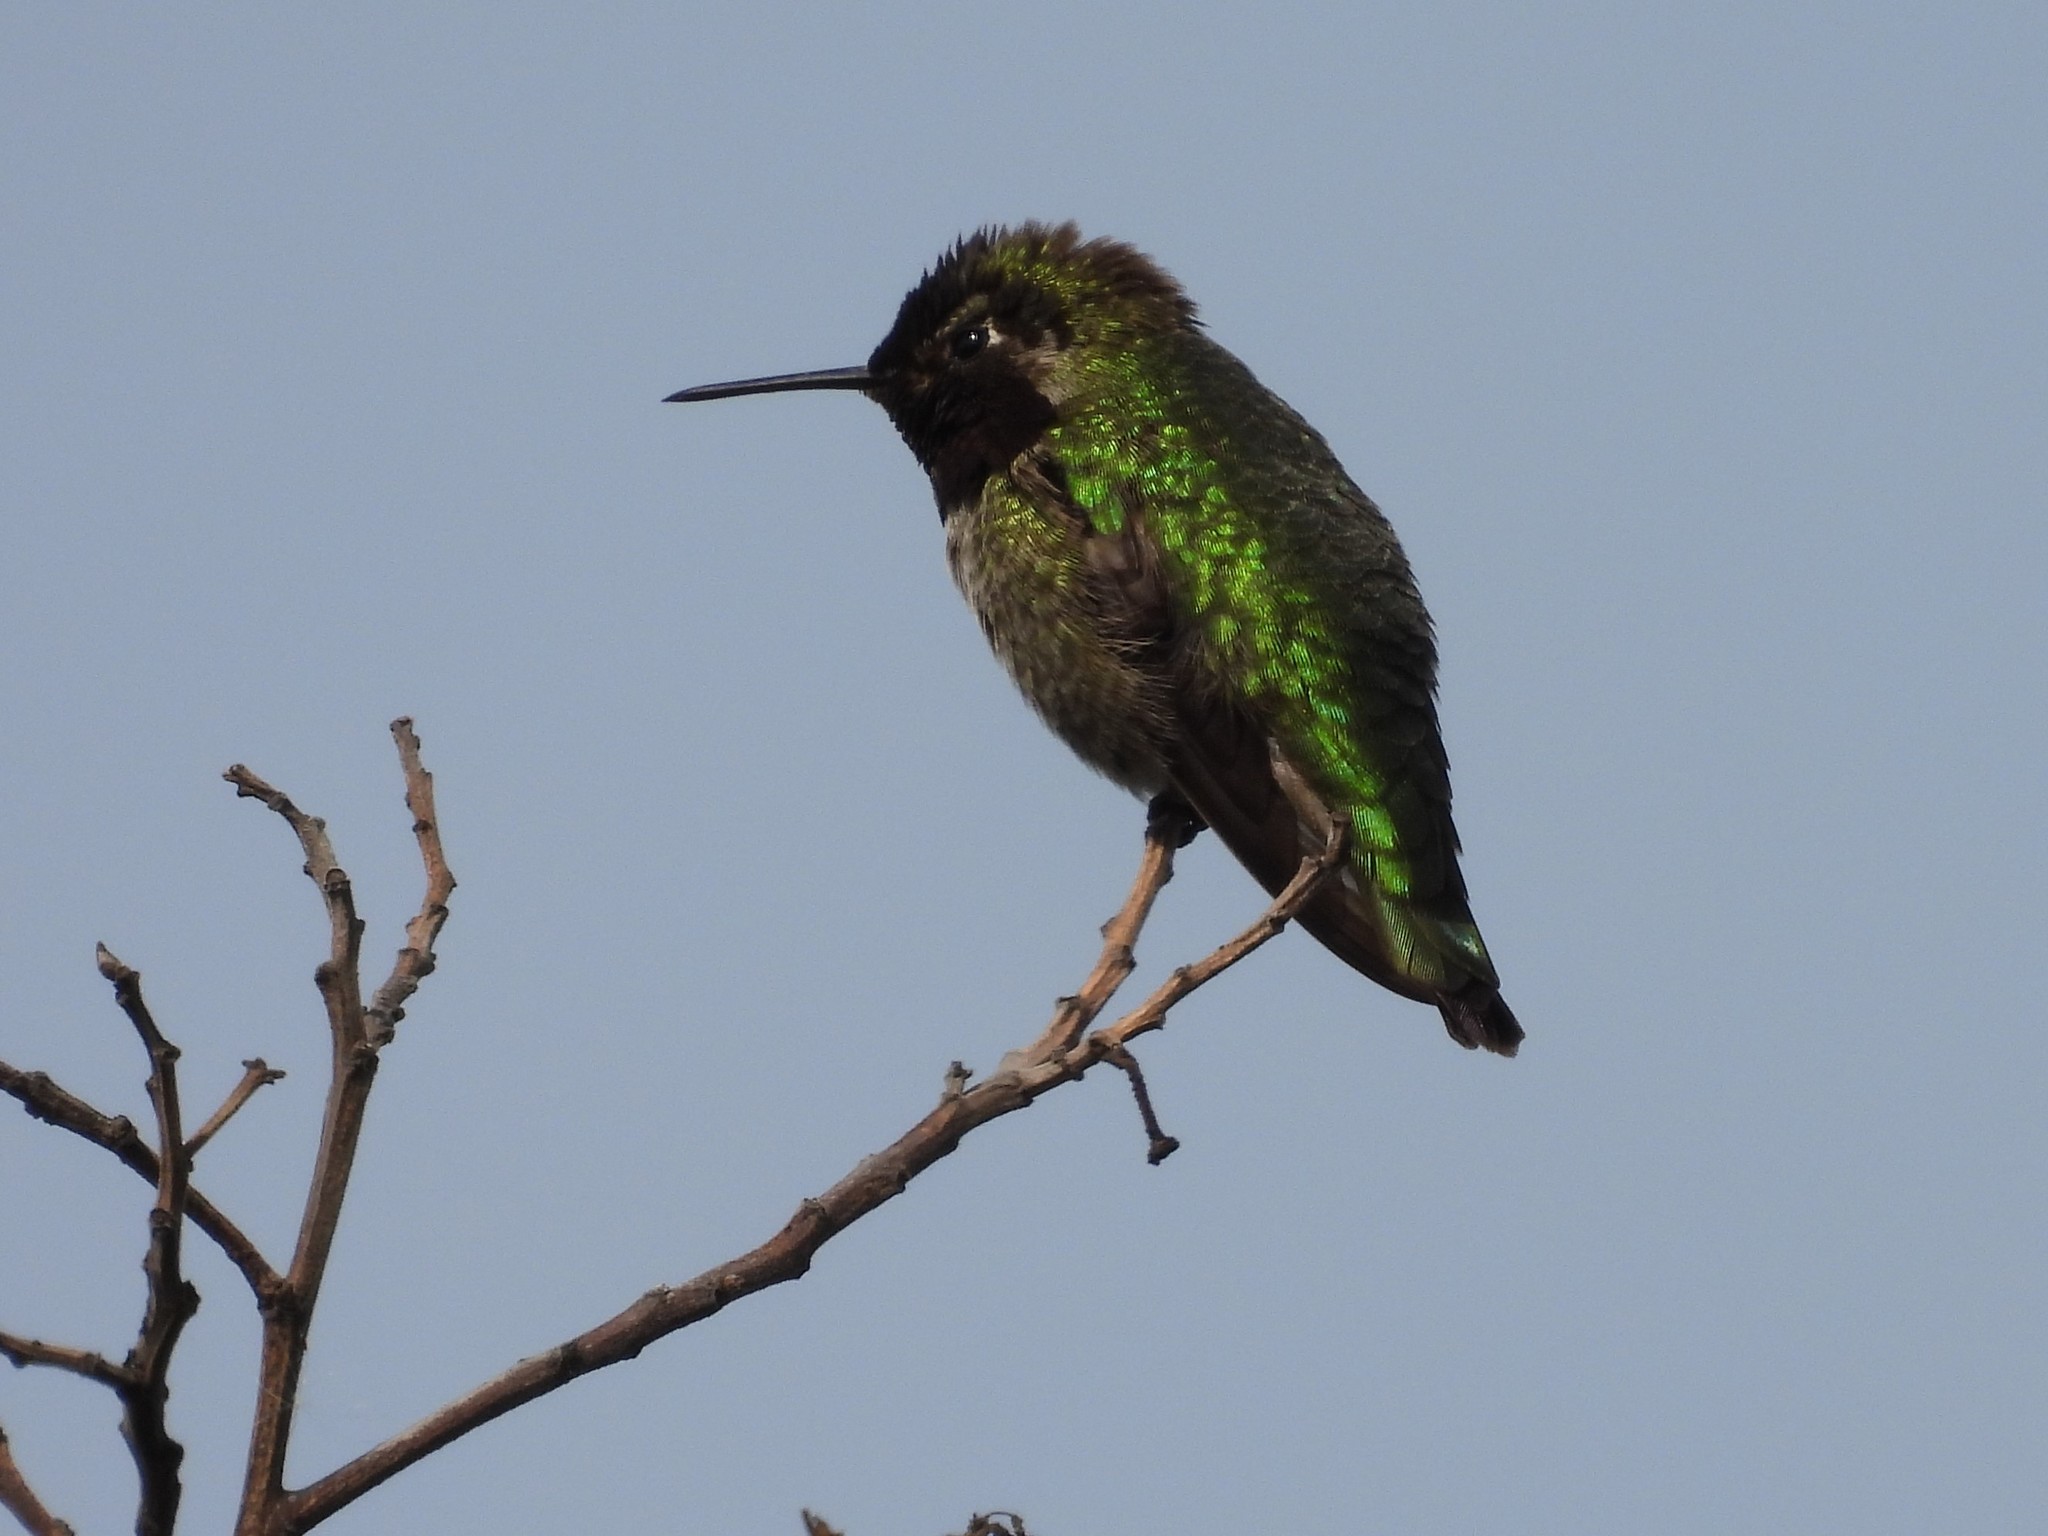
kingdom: Animalia
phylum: Chordata
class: Aves
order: Apodiformes
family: Trochilidae
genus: Calypte
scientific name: Calypte anna
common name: Anna's hummingbird
